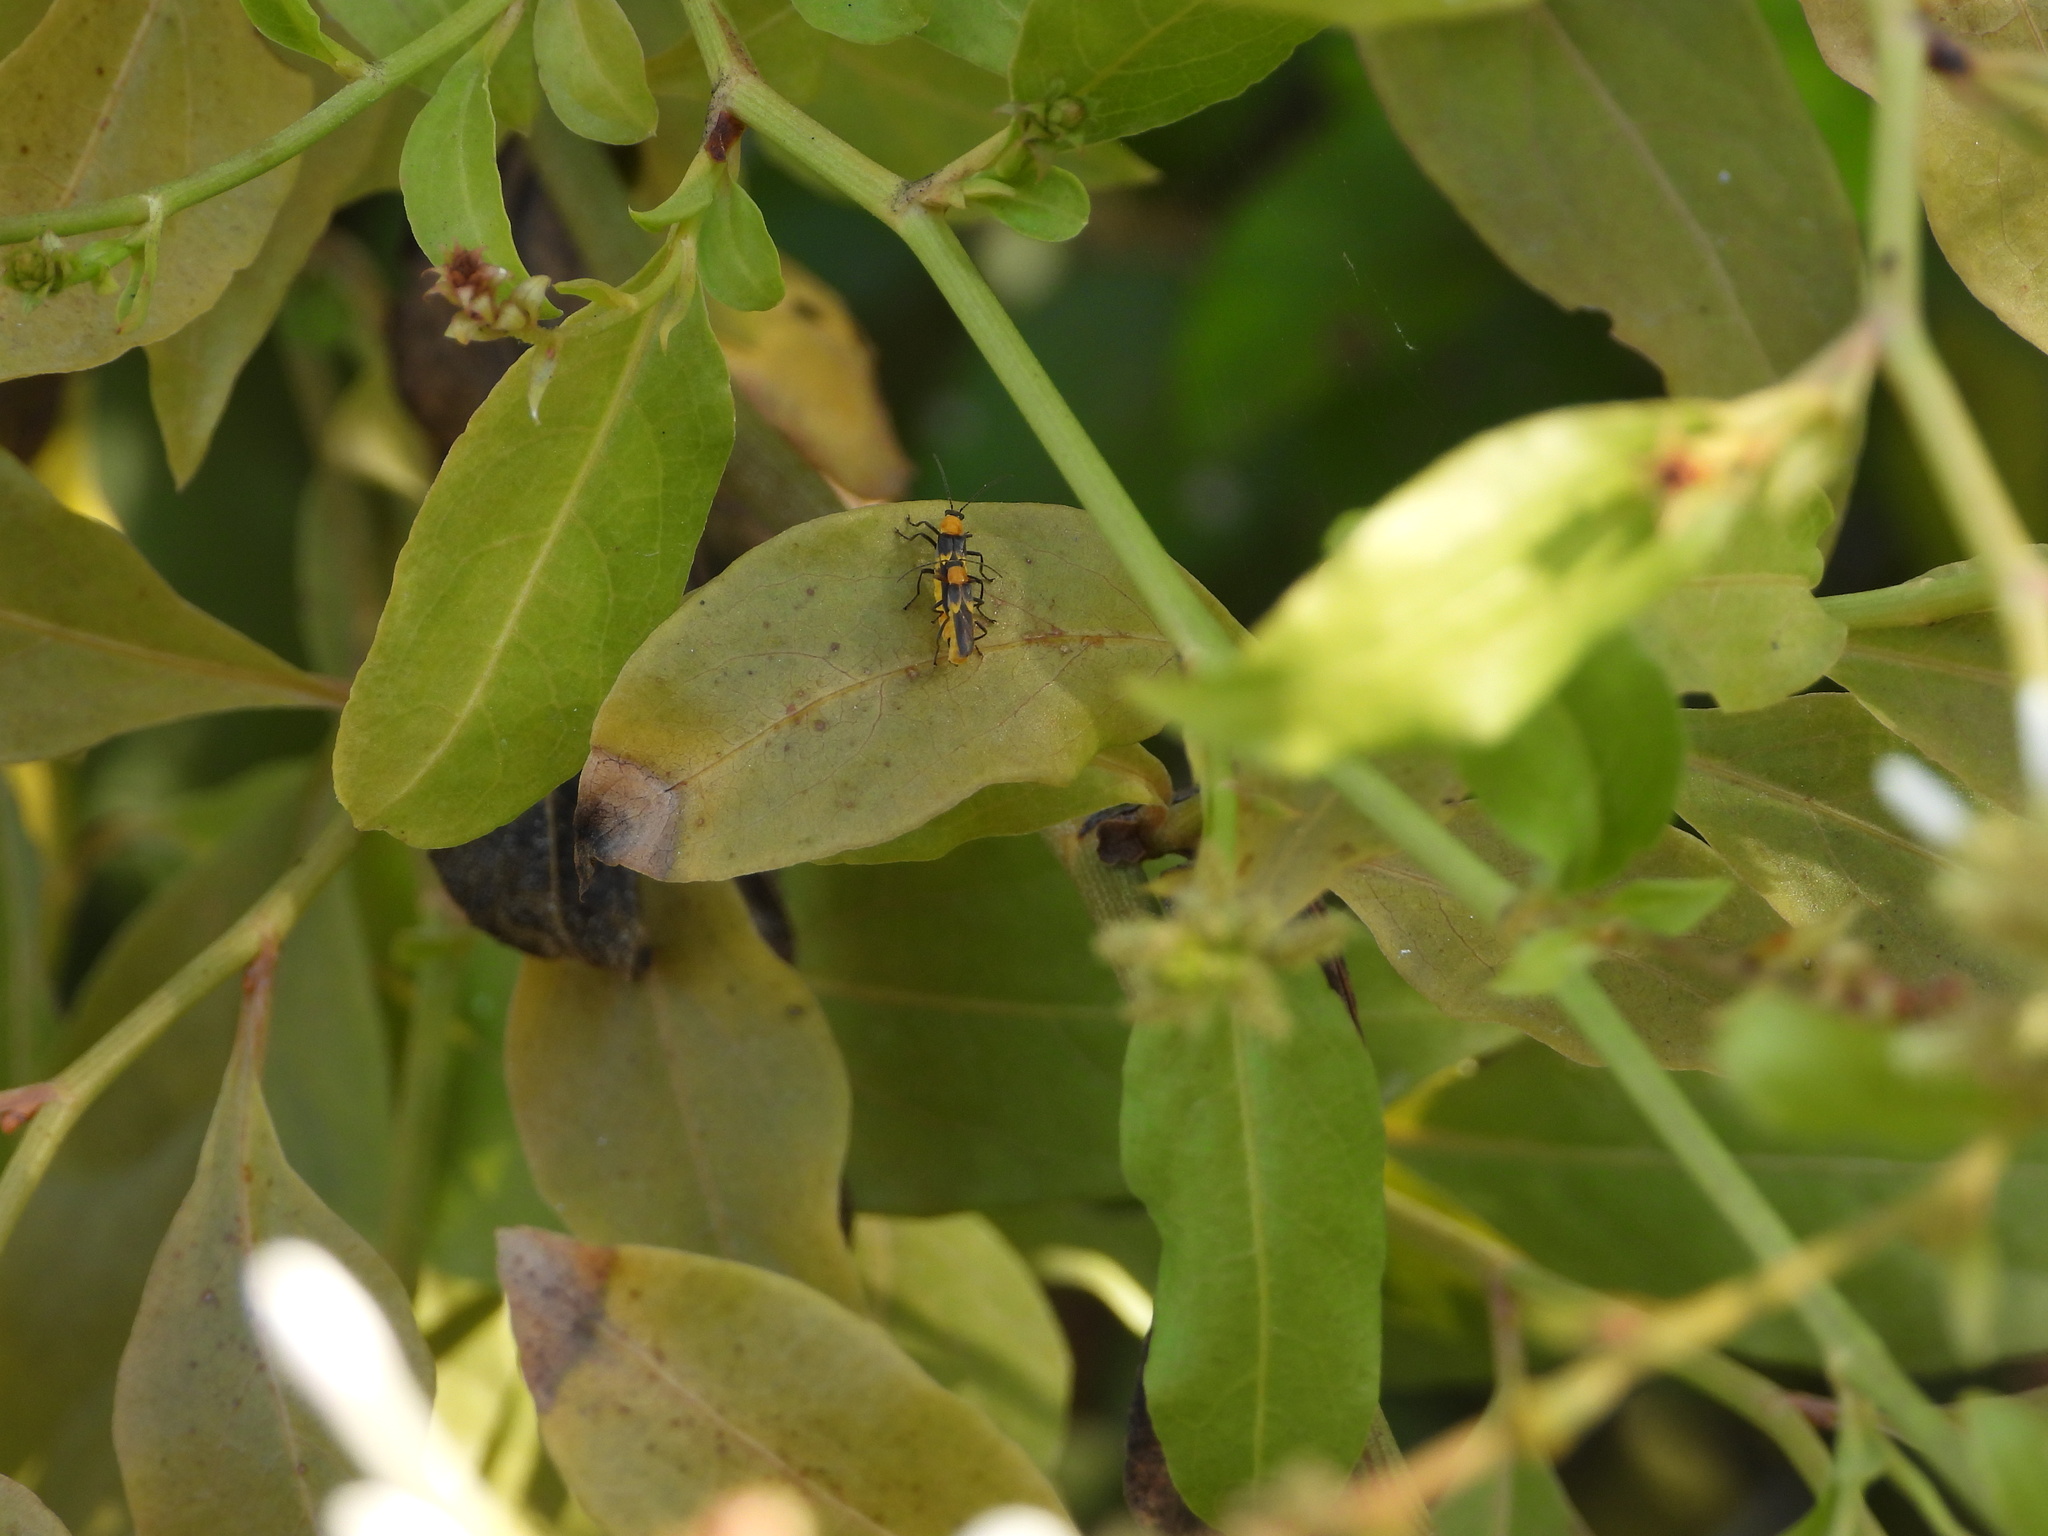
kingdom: Animalia
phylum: Arthropoda
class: Insecta
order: Coleoptera
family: Cantharidae
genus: Belotus
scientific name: Belotus bicolor
